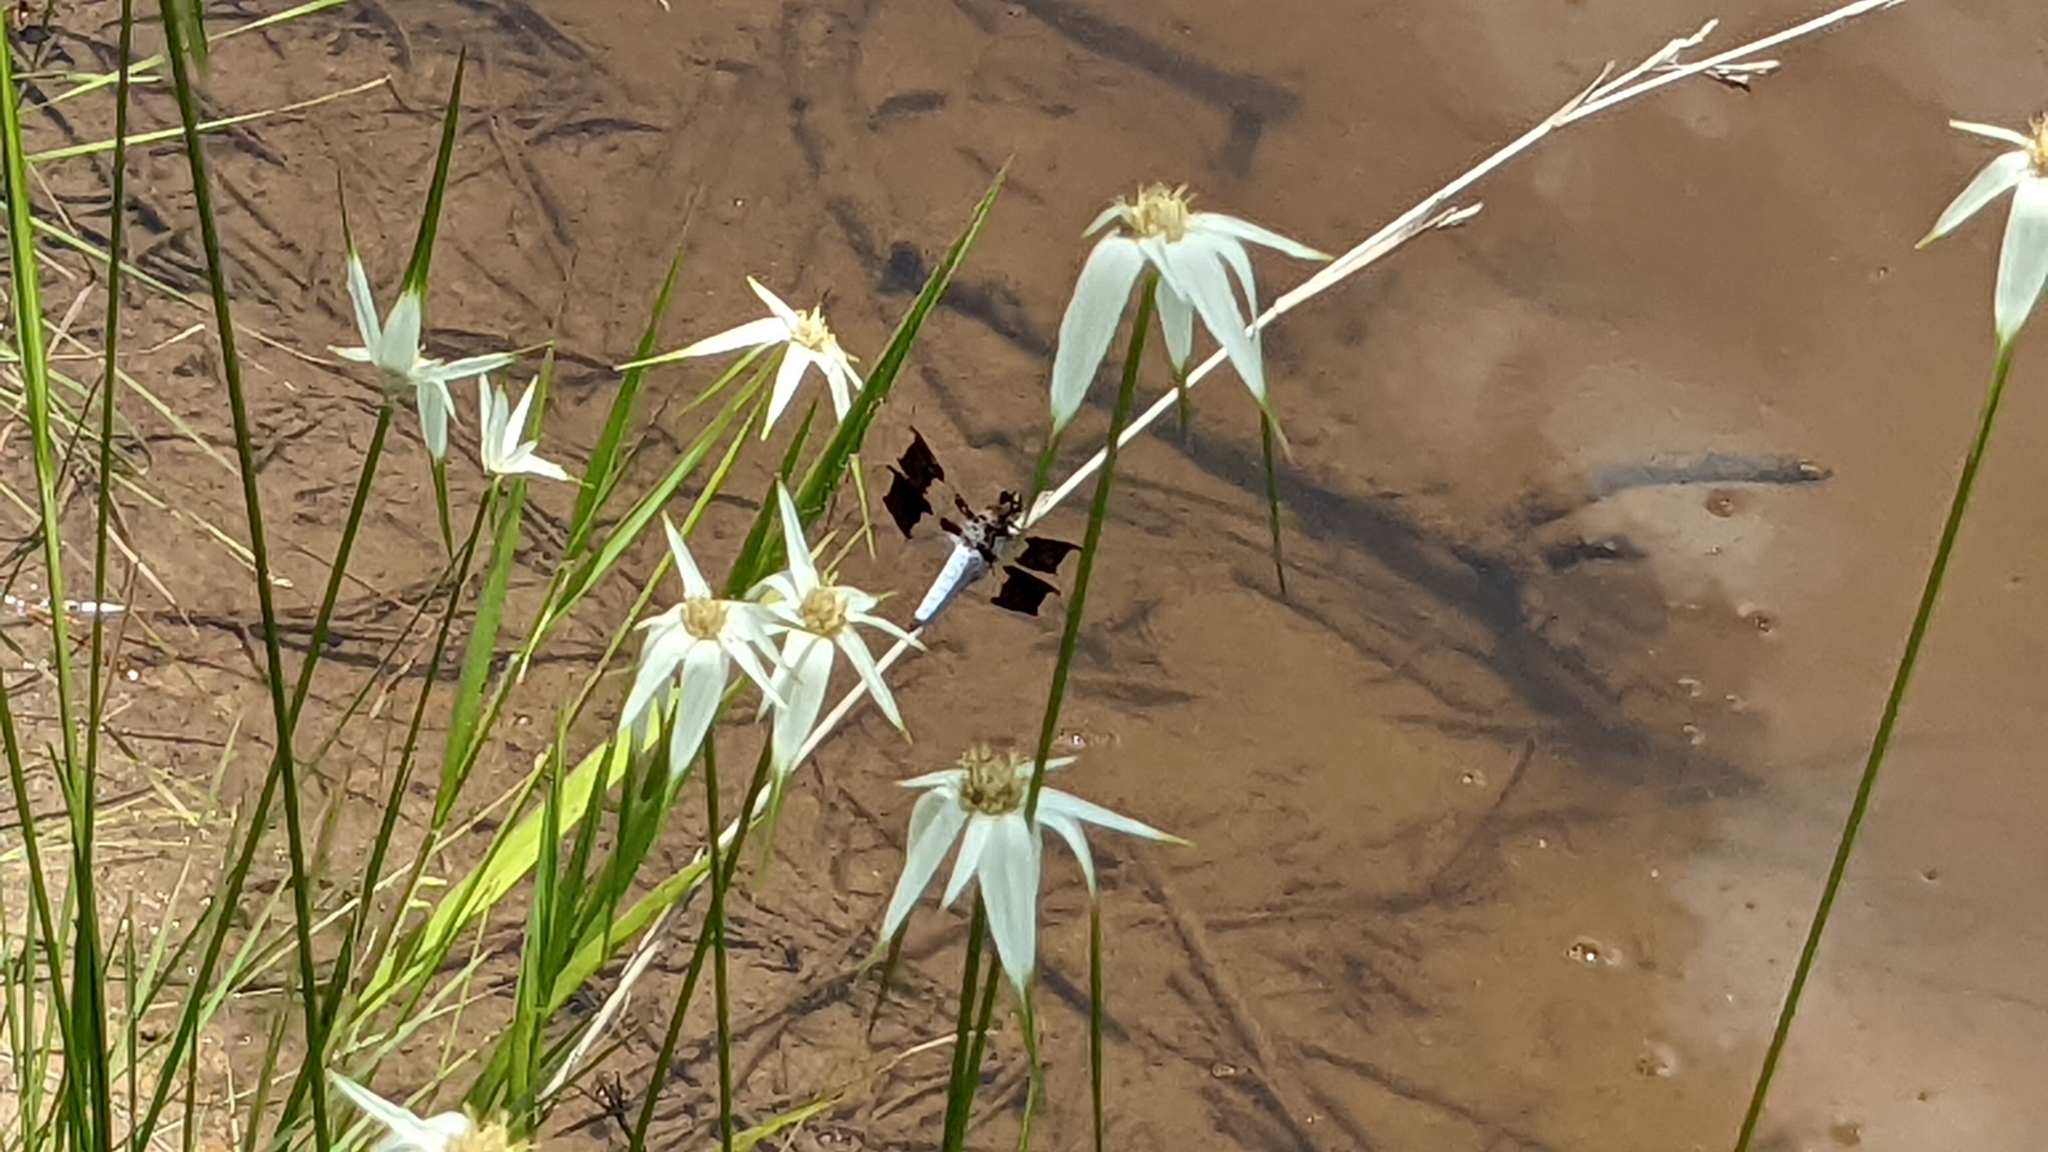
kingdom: Animalia
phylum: Arthropoda
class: Insecta
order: Odonata
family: Libellulidae
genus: Plathemis
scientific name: Plathemis lydia
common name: Common whitetail
